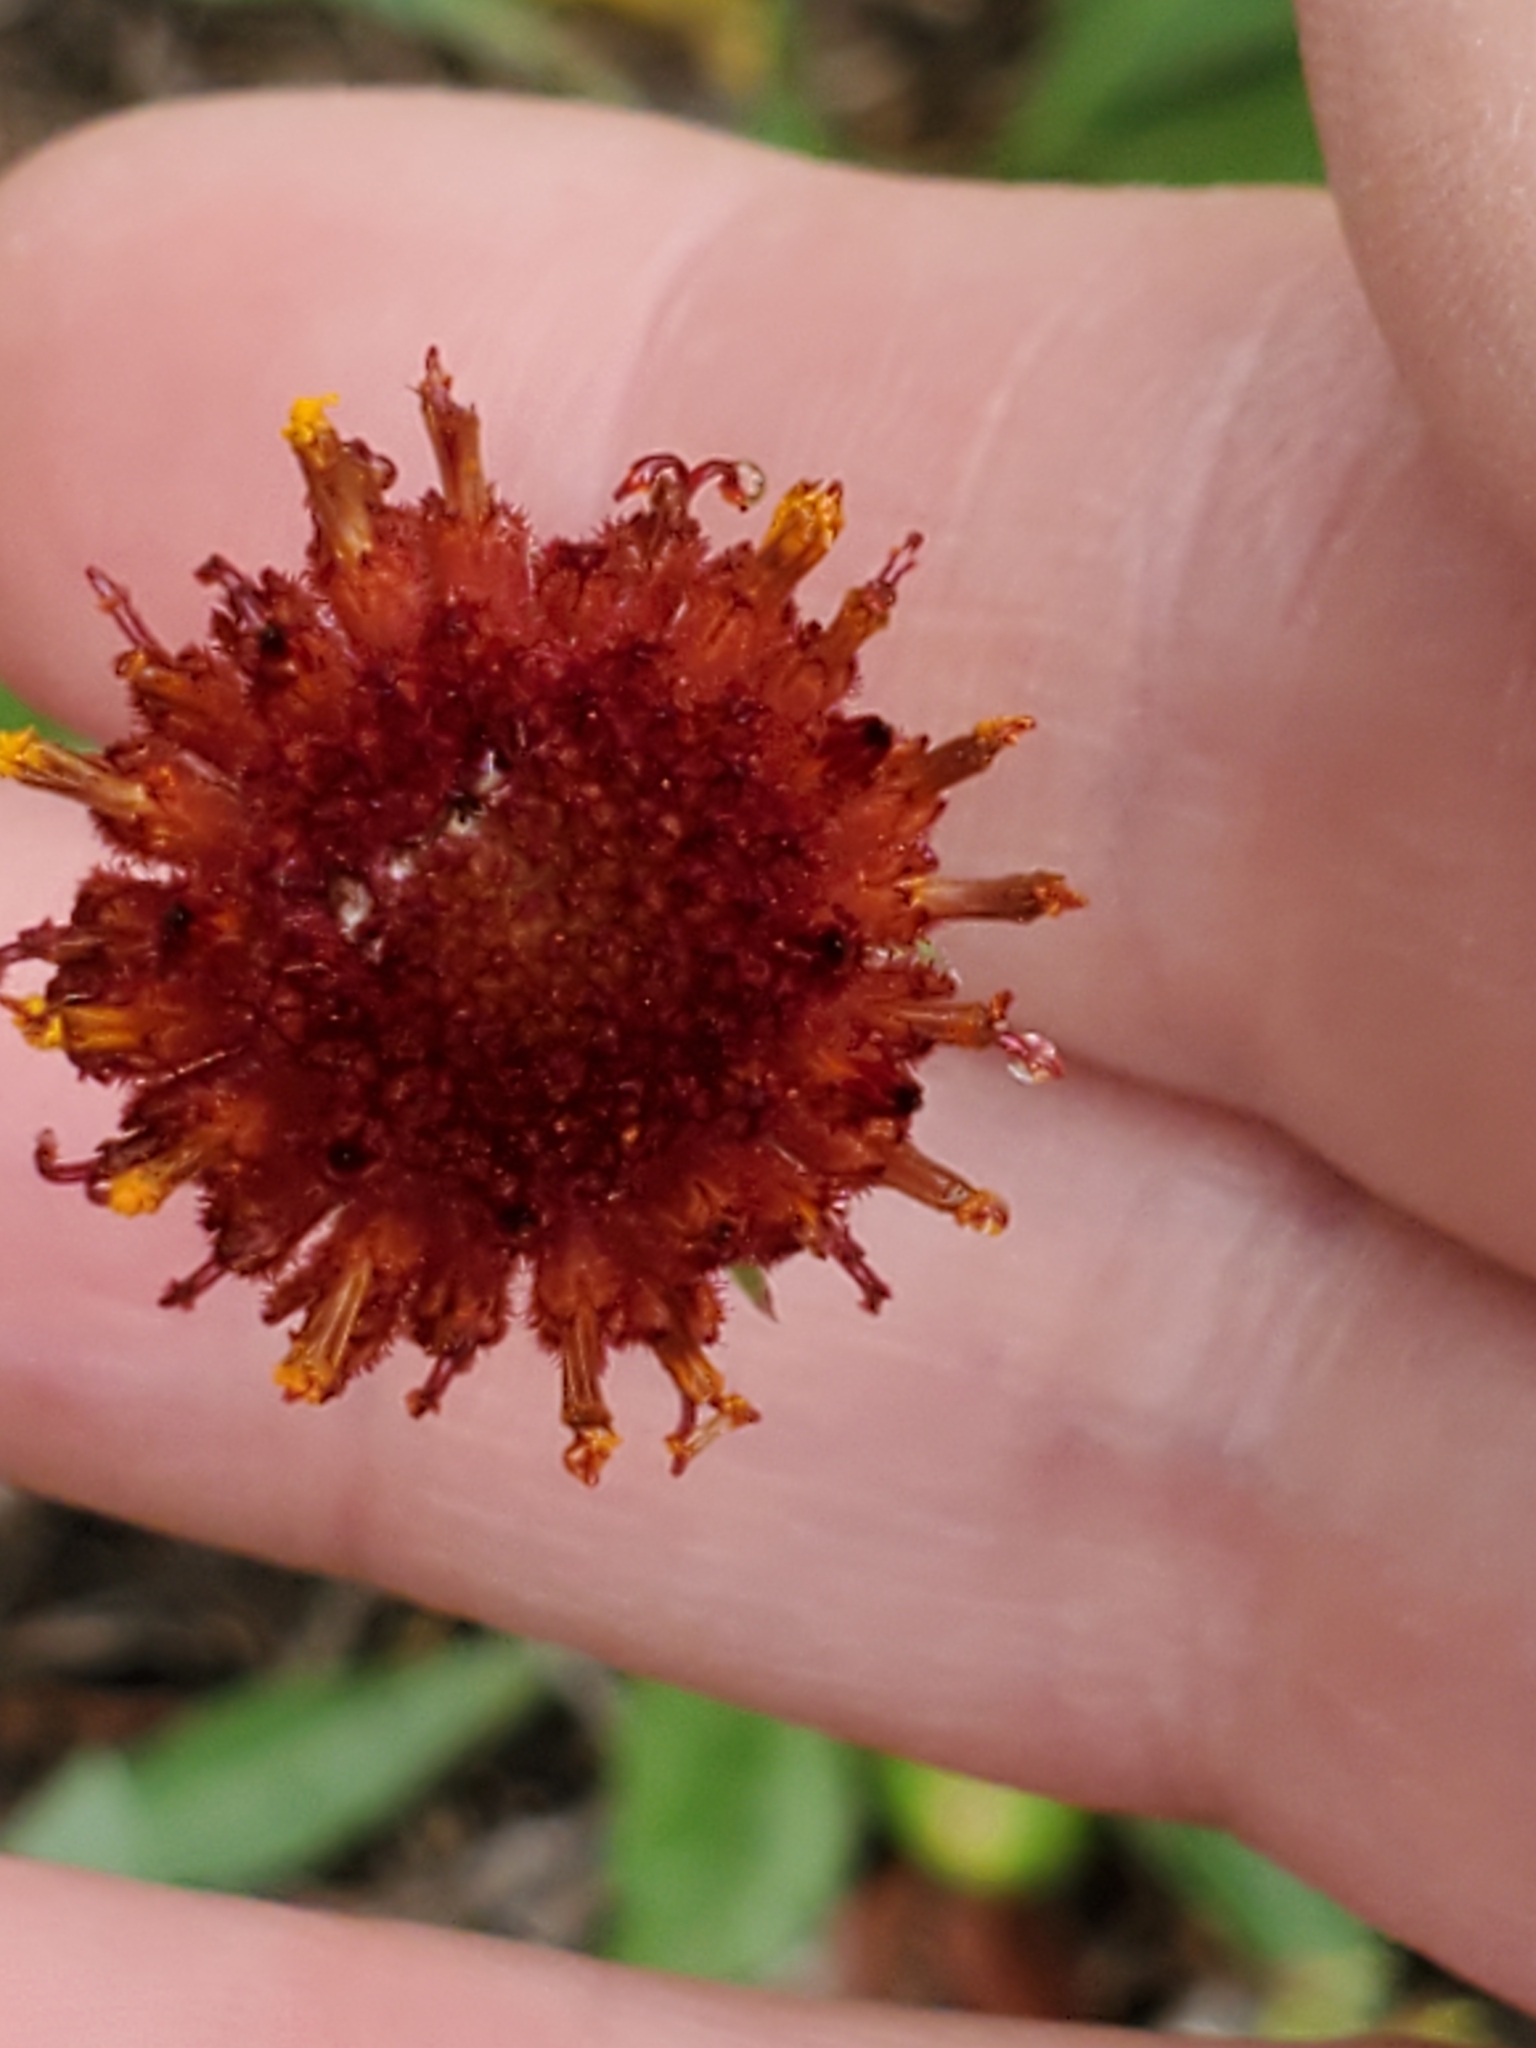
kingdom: Plantae
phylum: Tracheophyta
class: Magnoliopsida
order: Asterales
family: Asteraceae
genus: Gaillardia
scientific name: Gaillardia suavis
